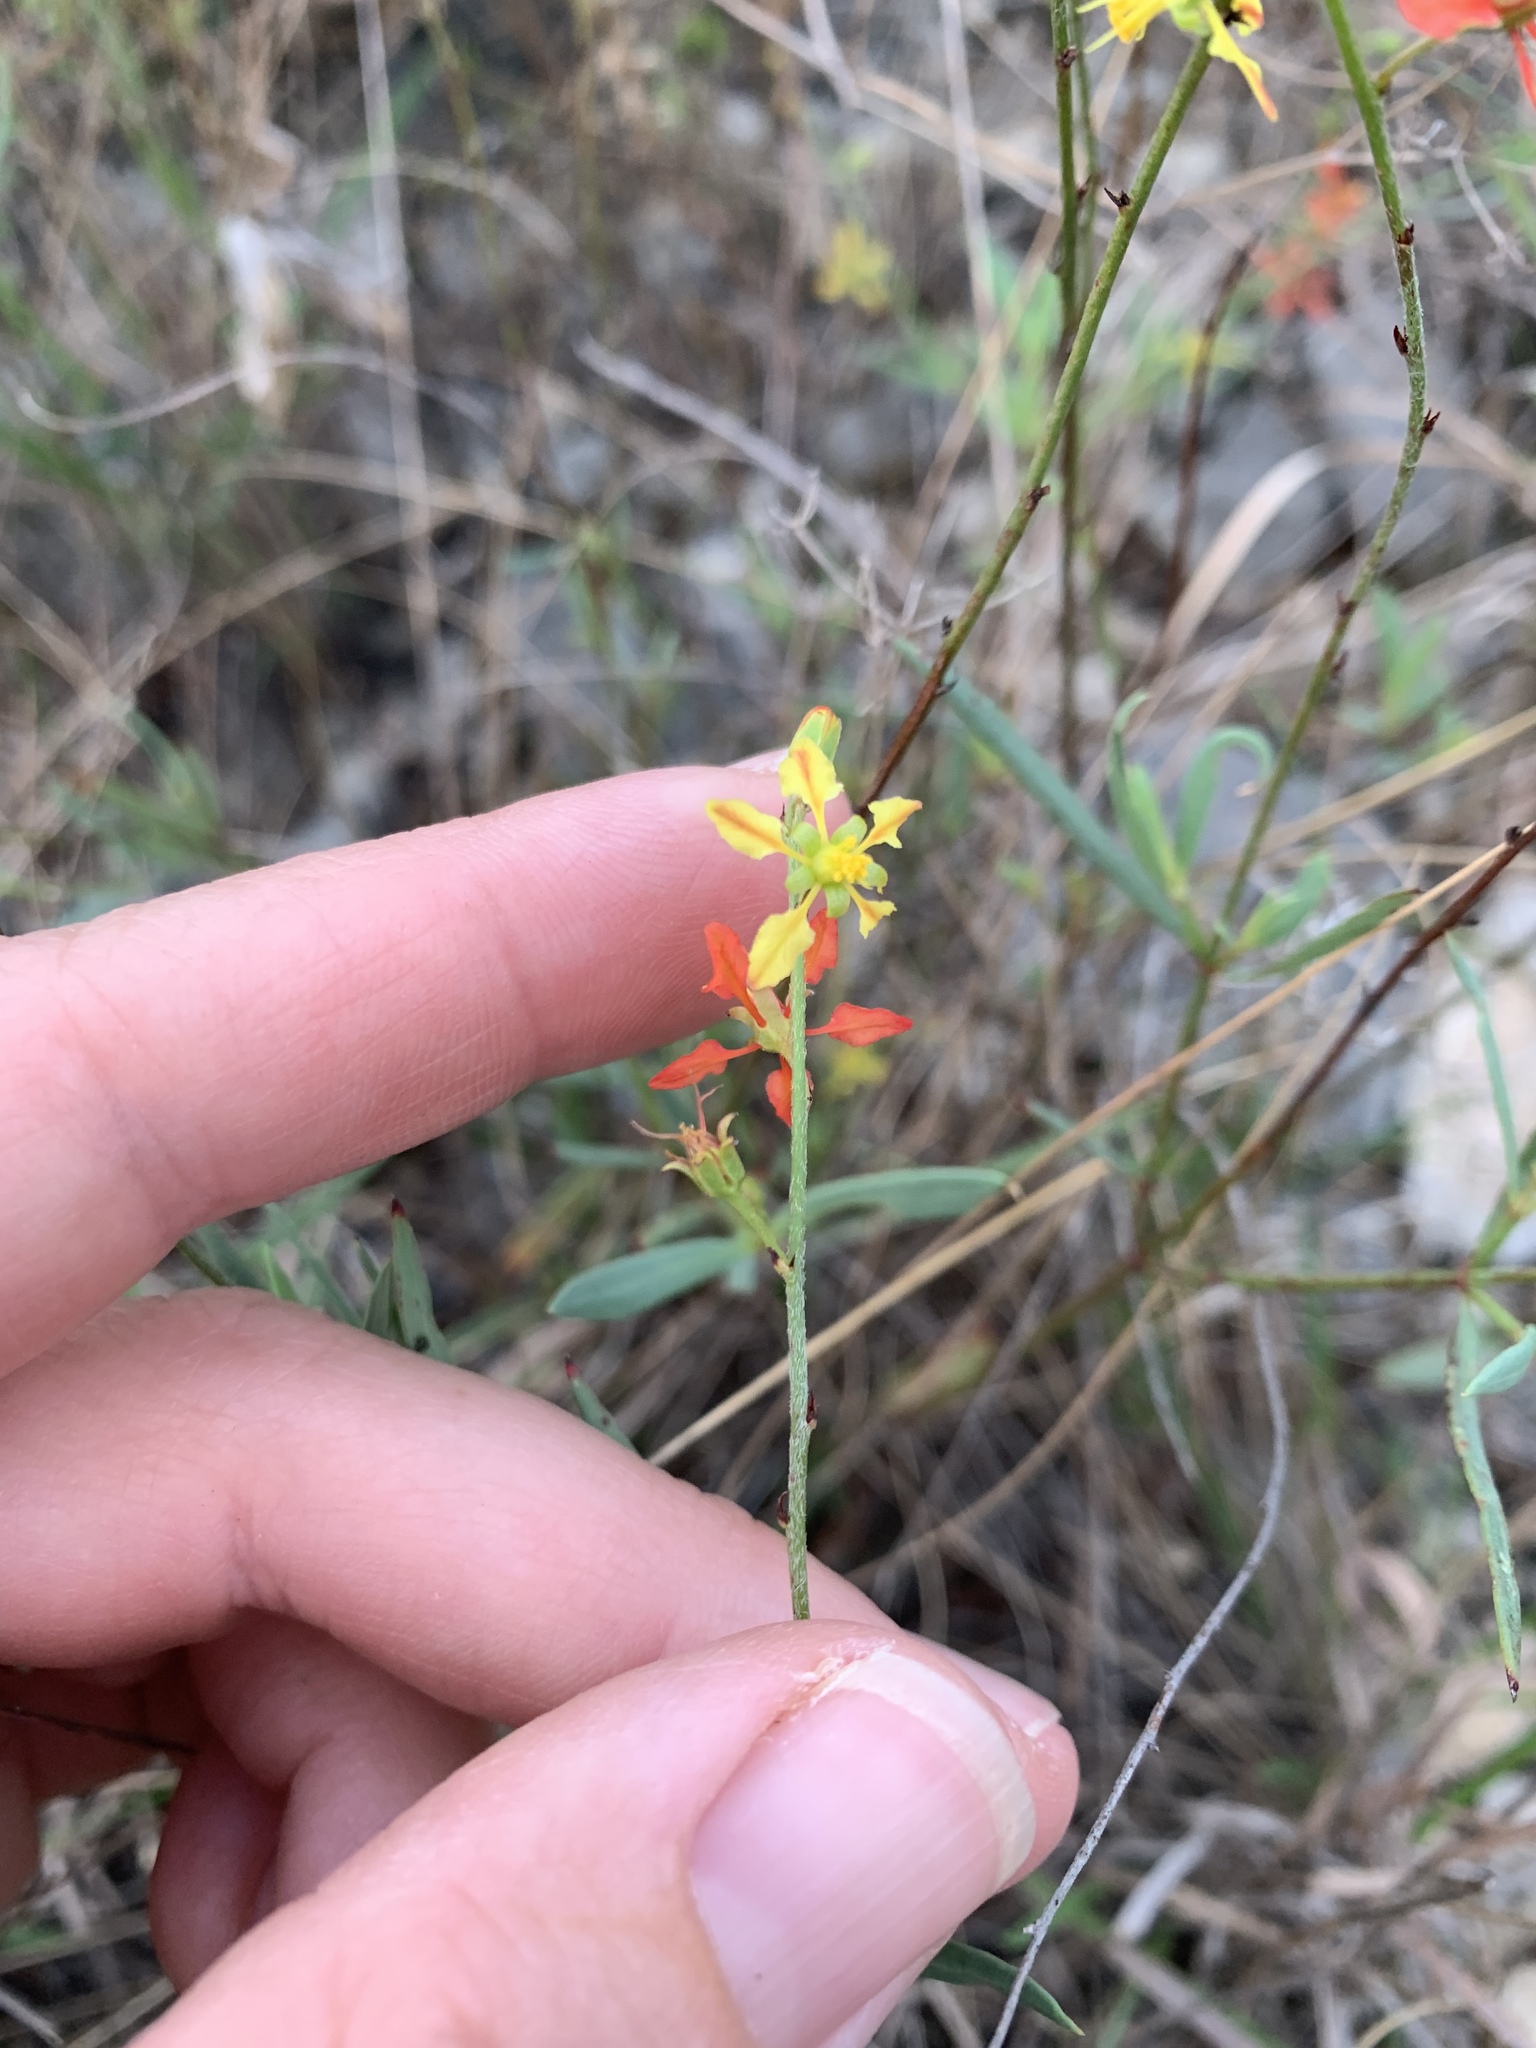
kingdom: Plantae
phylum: Tracheophyta
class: Magnoliopsida
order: Malpighiales
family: Malpighiaceae
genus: Galphimia
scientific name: Galphimia angustifolia
